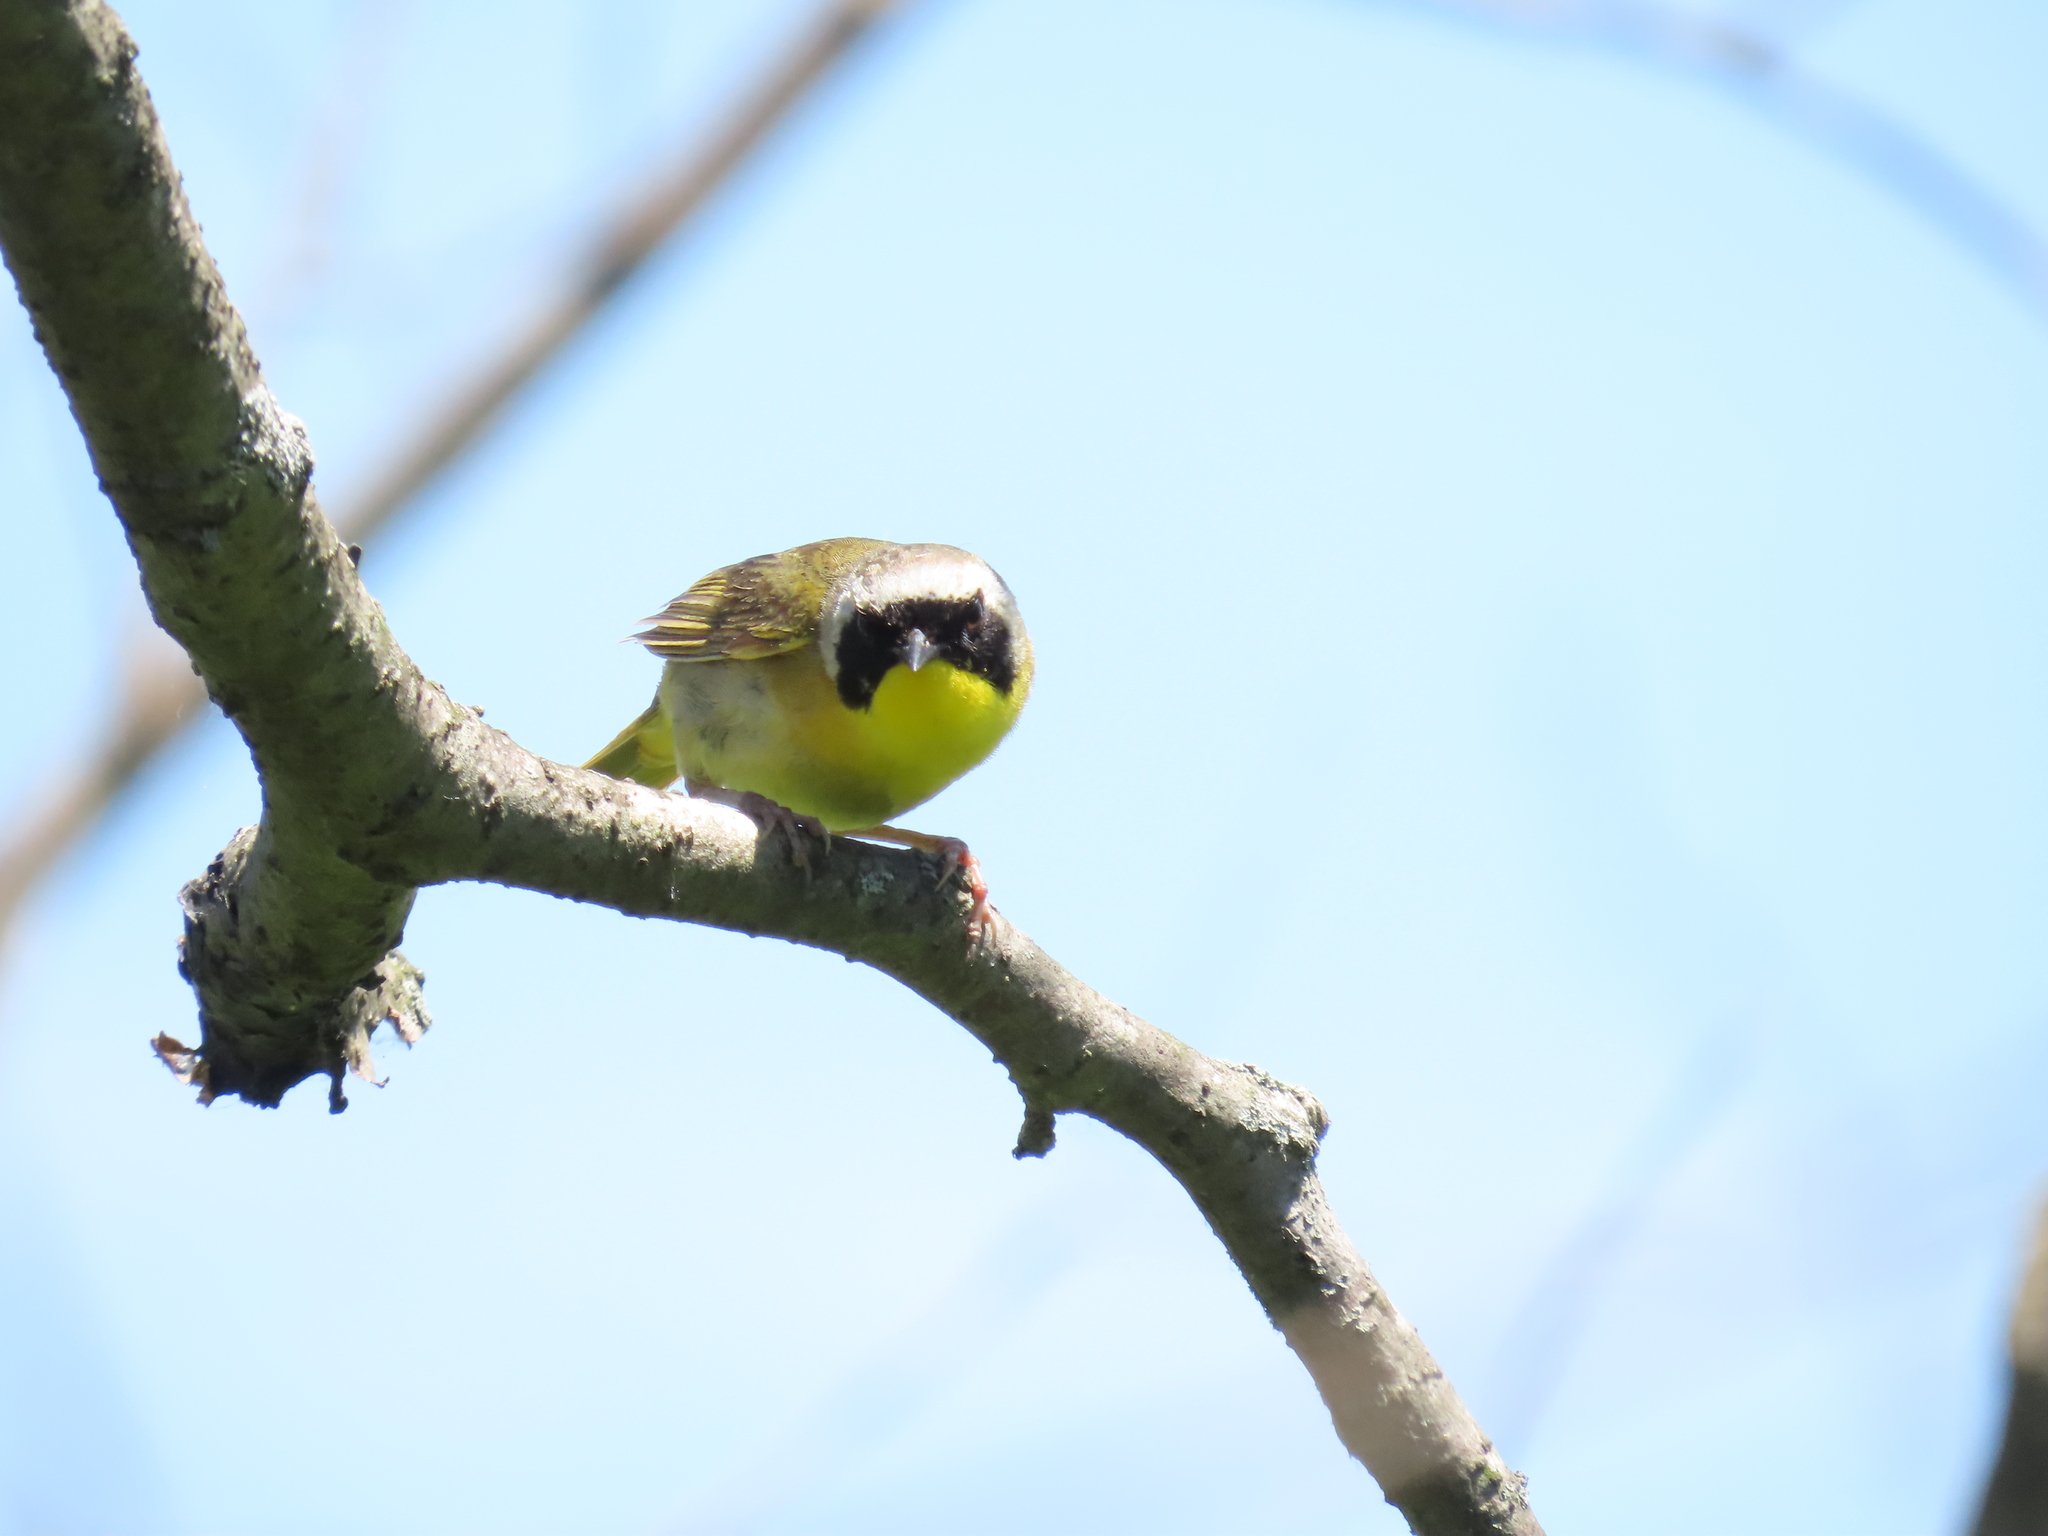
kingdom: Animalia
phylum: Chordata
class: Aves
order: Passeriformes
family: Parulidae
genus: Geothlypis
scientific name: Geothlypis trichas
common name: Common yellowthroat
